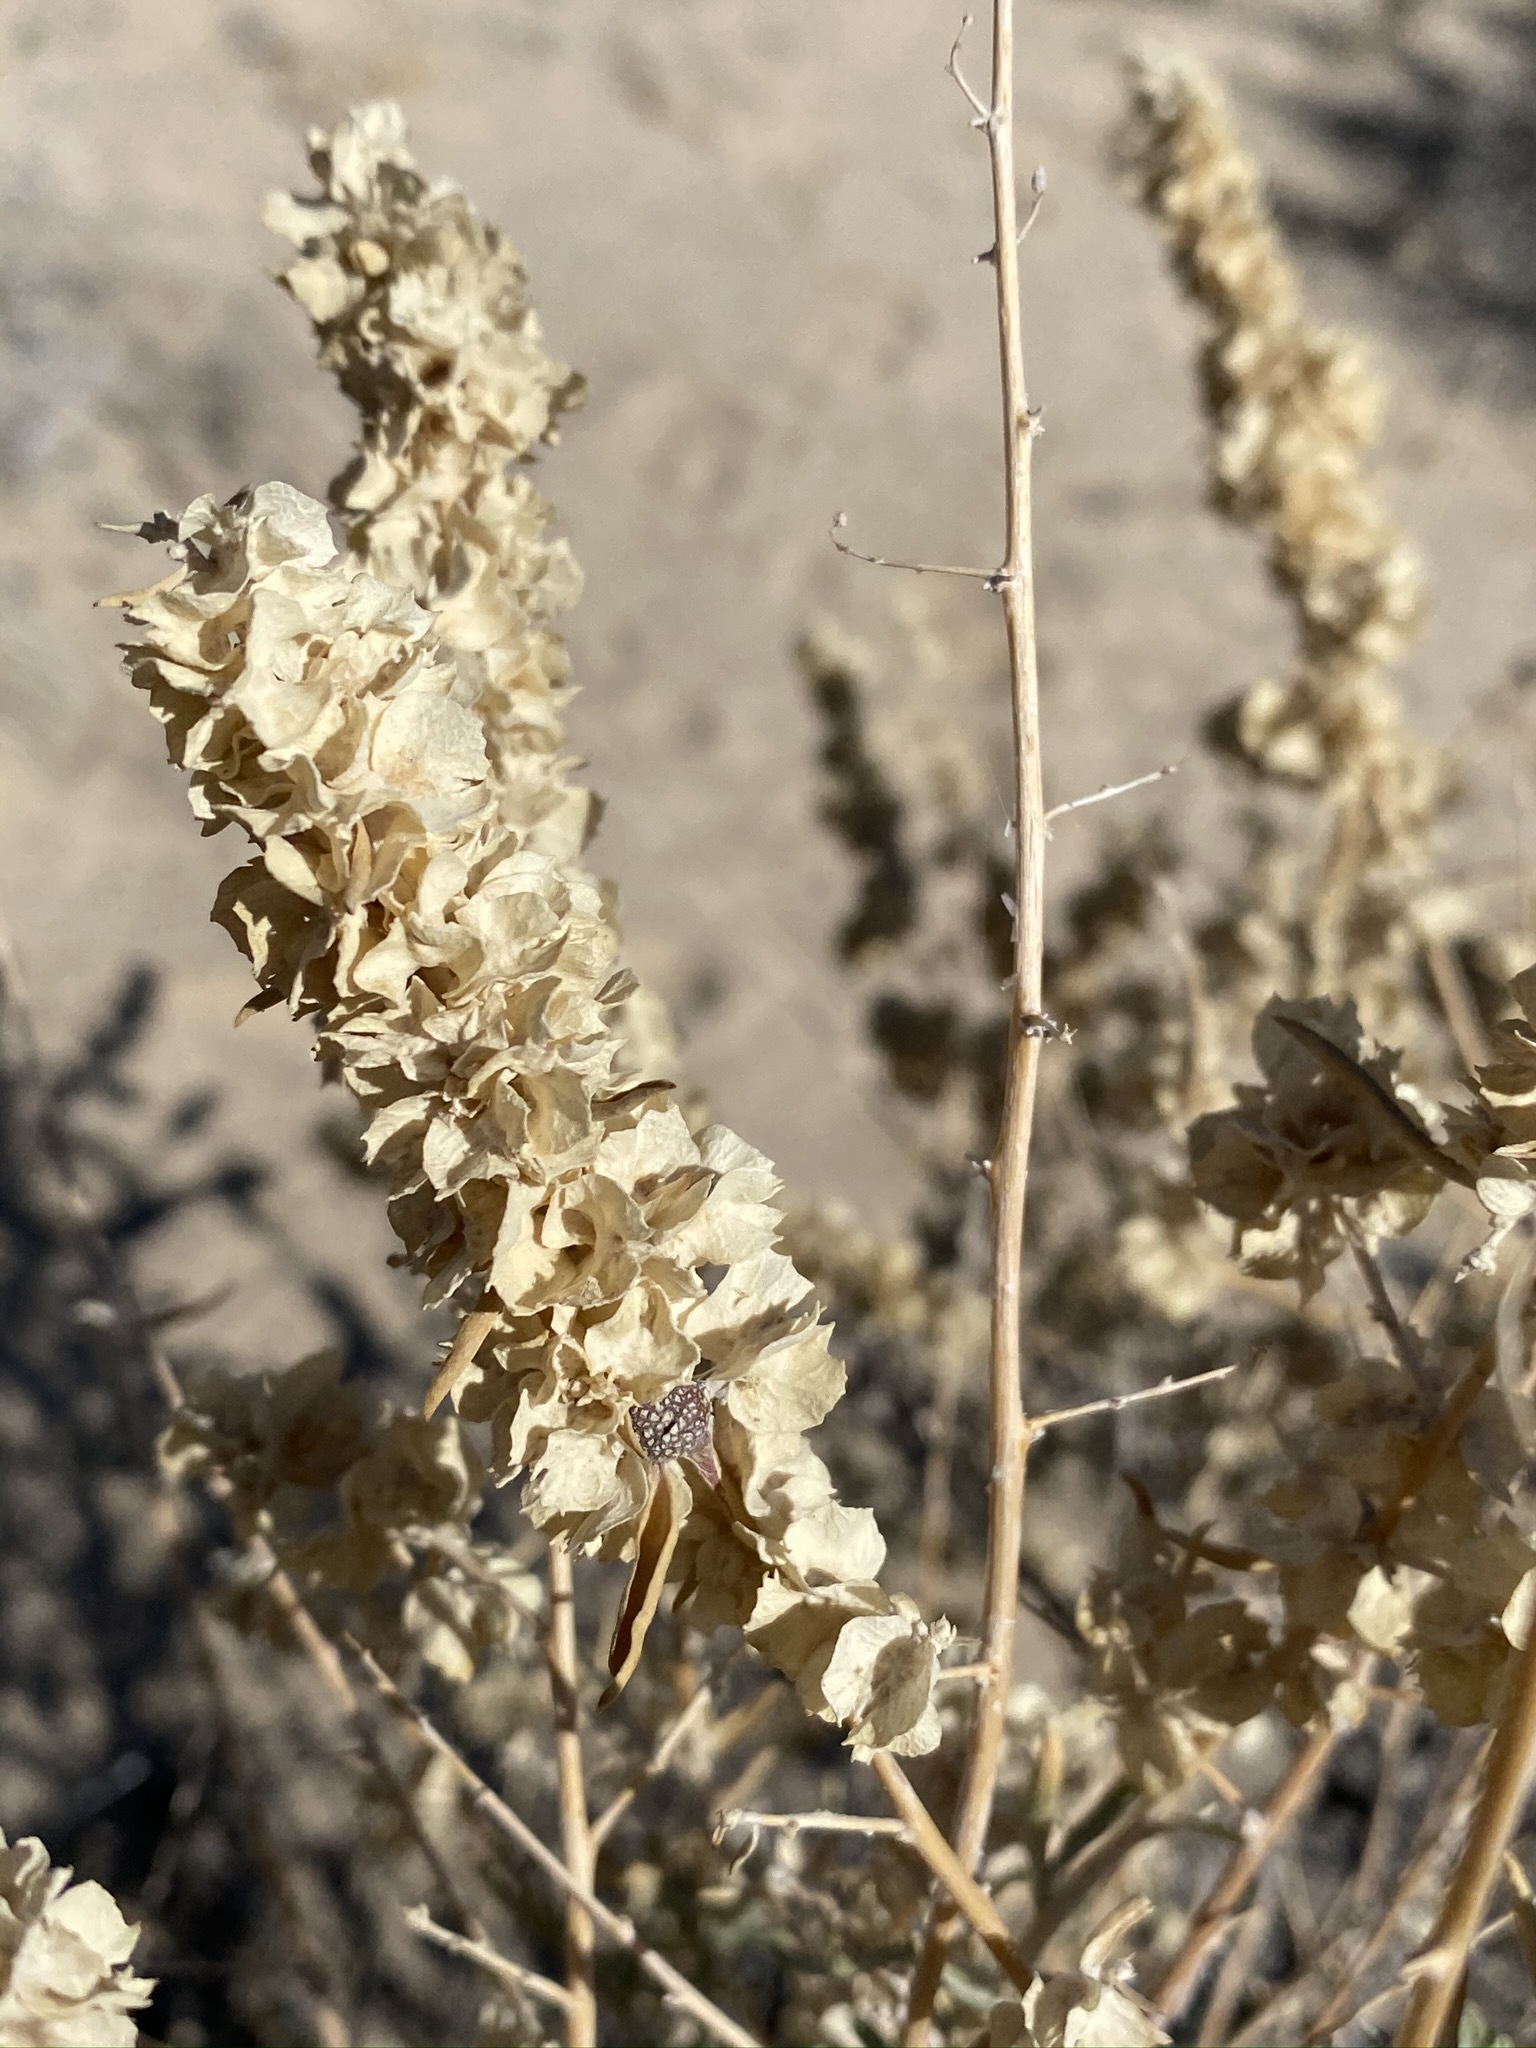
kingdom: Plantae
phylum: Tracheophyta
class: Magnoliopsida
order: Caryophyllales
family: Amaranthaceae
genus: Atriplex
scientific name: Atriplex canescens
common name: Four-wing saltbush
